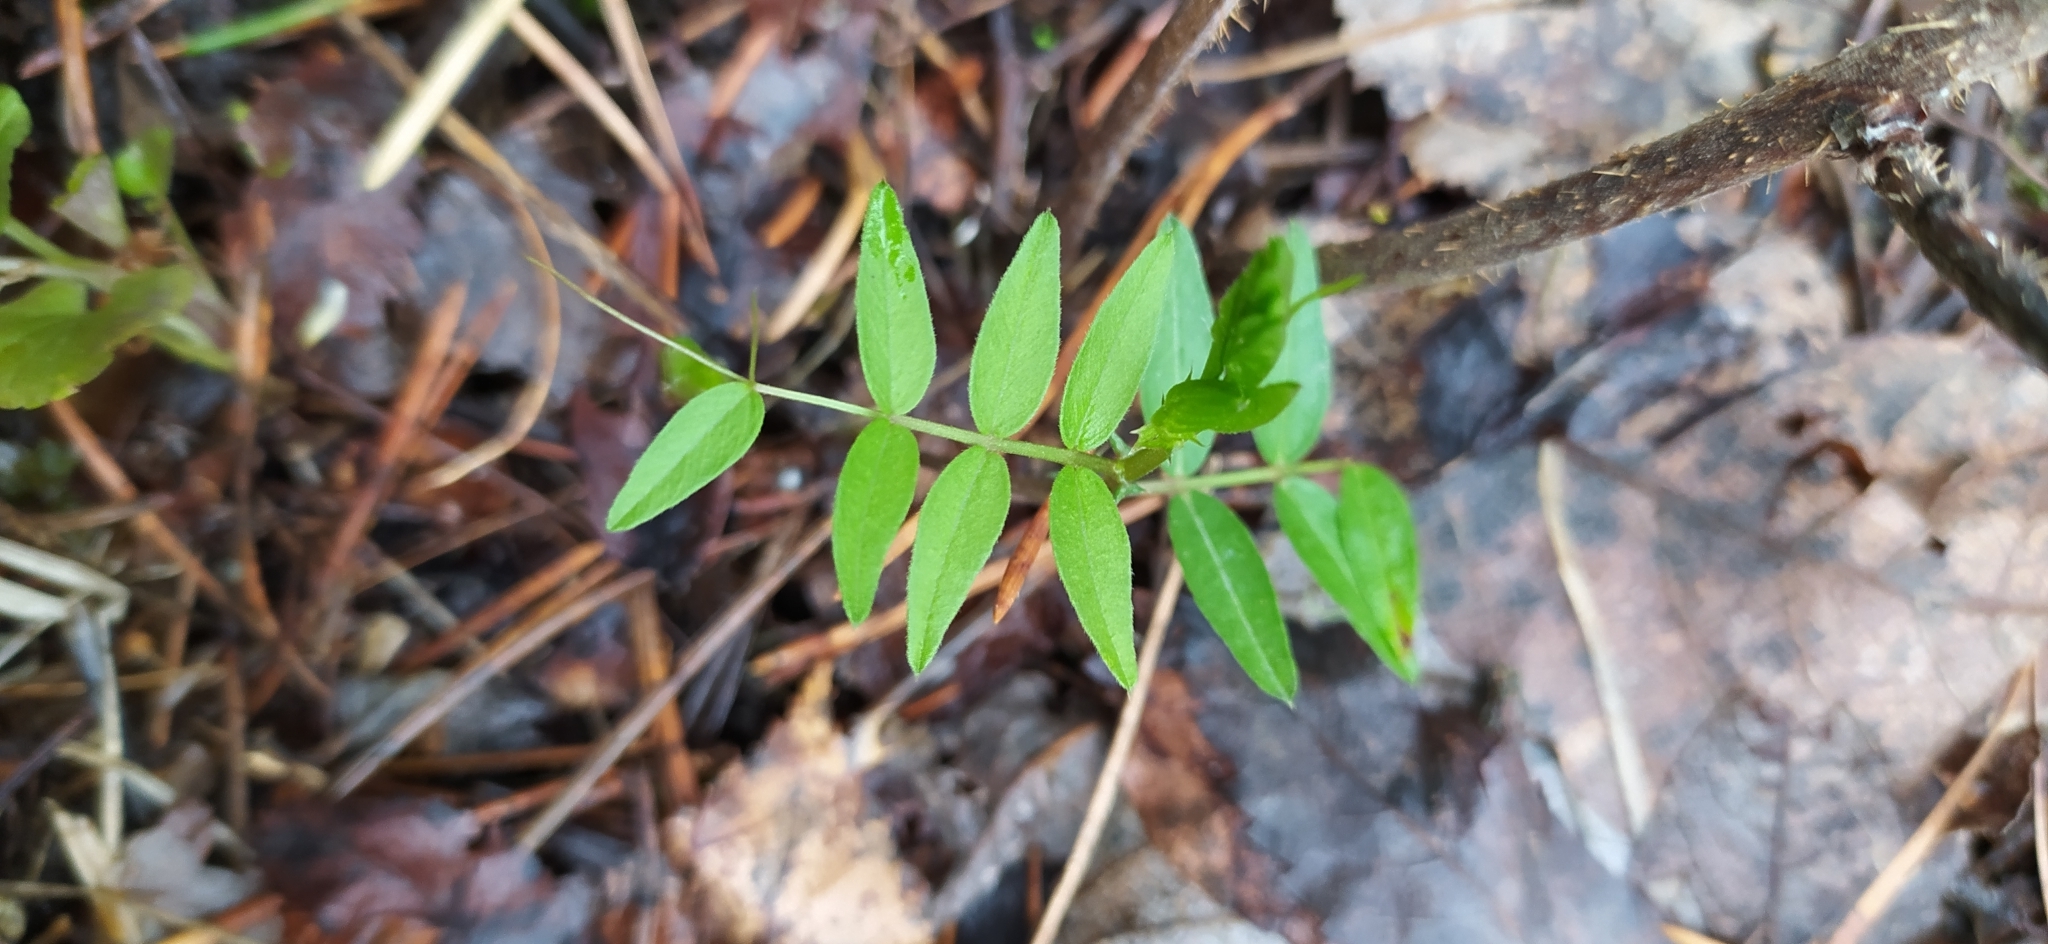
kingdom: Plantae
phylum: Tracheophyta
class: Magnoliopsida
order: Fabales
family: Fabaceae
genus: Vicia
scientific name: Vicia sepium
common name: Bush vetch
